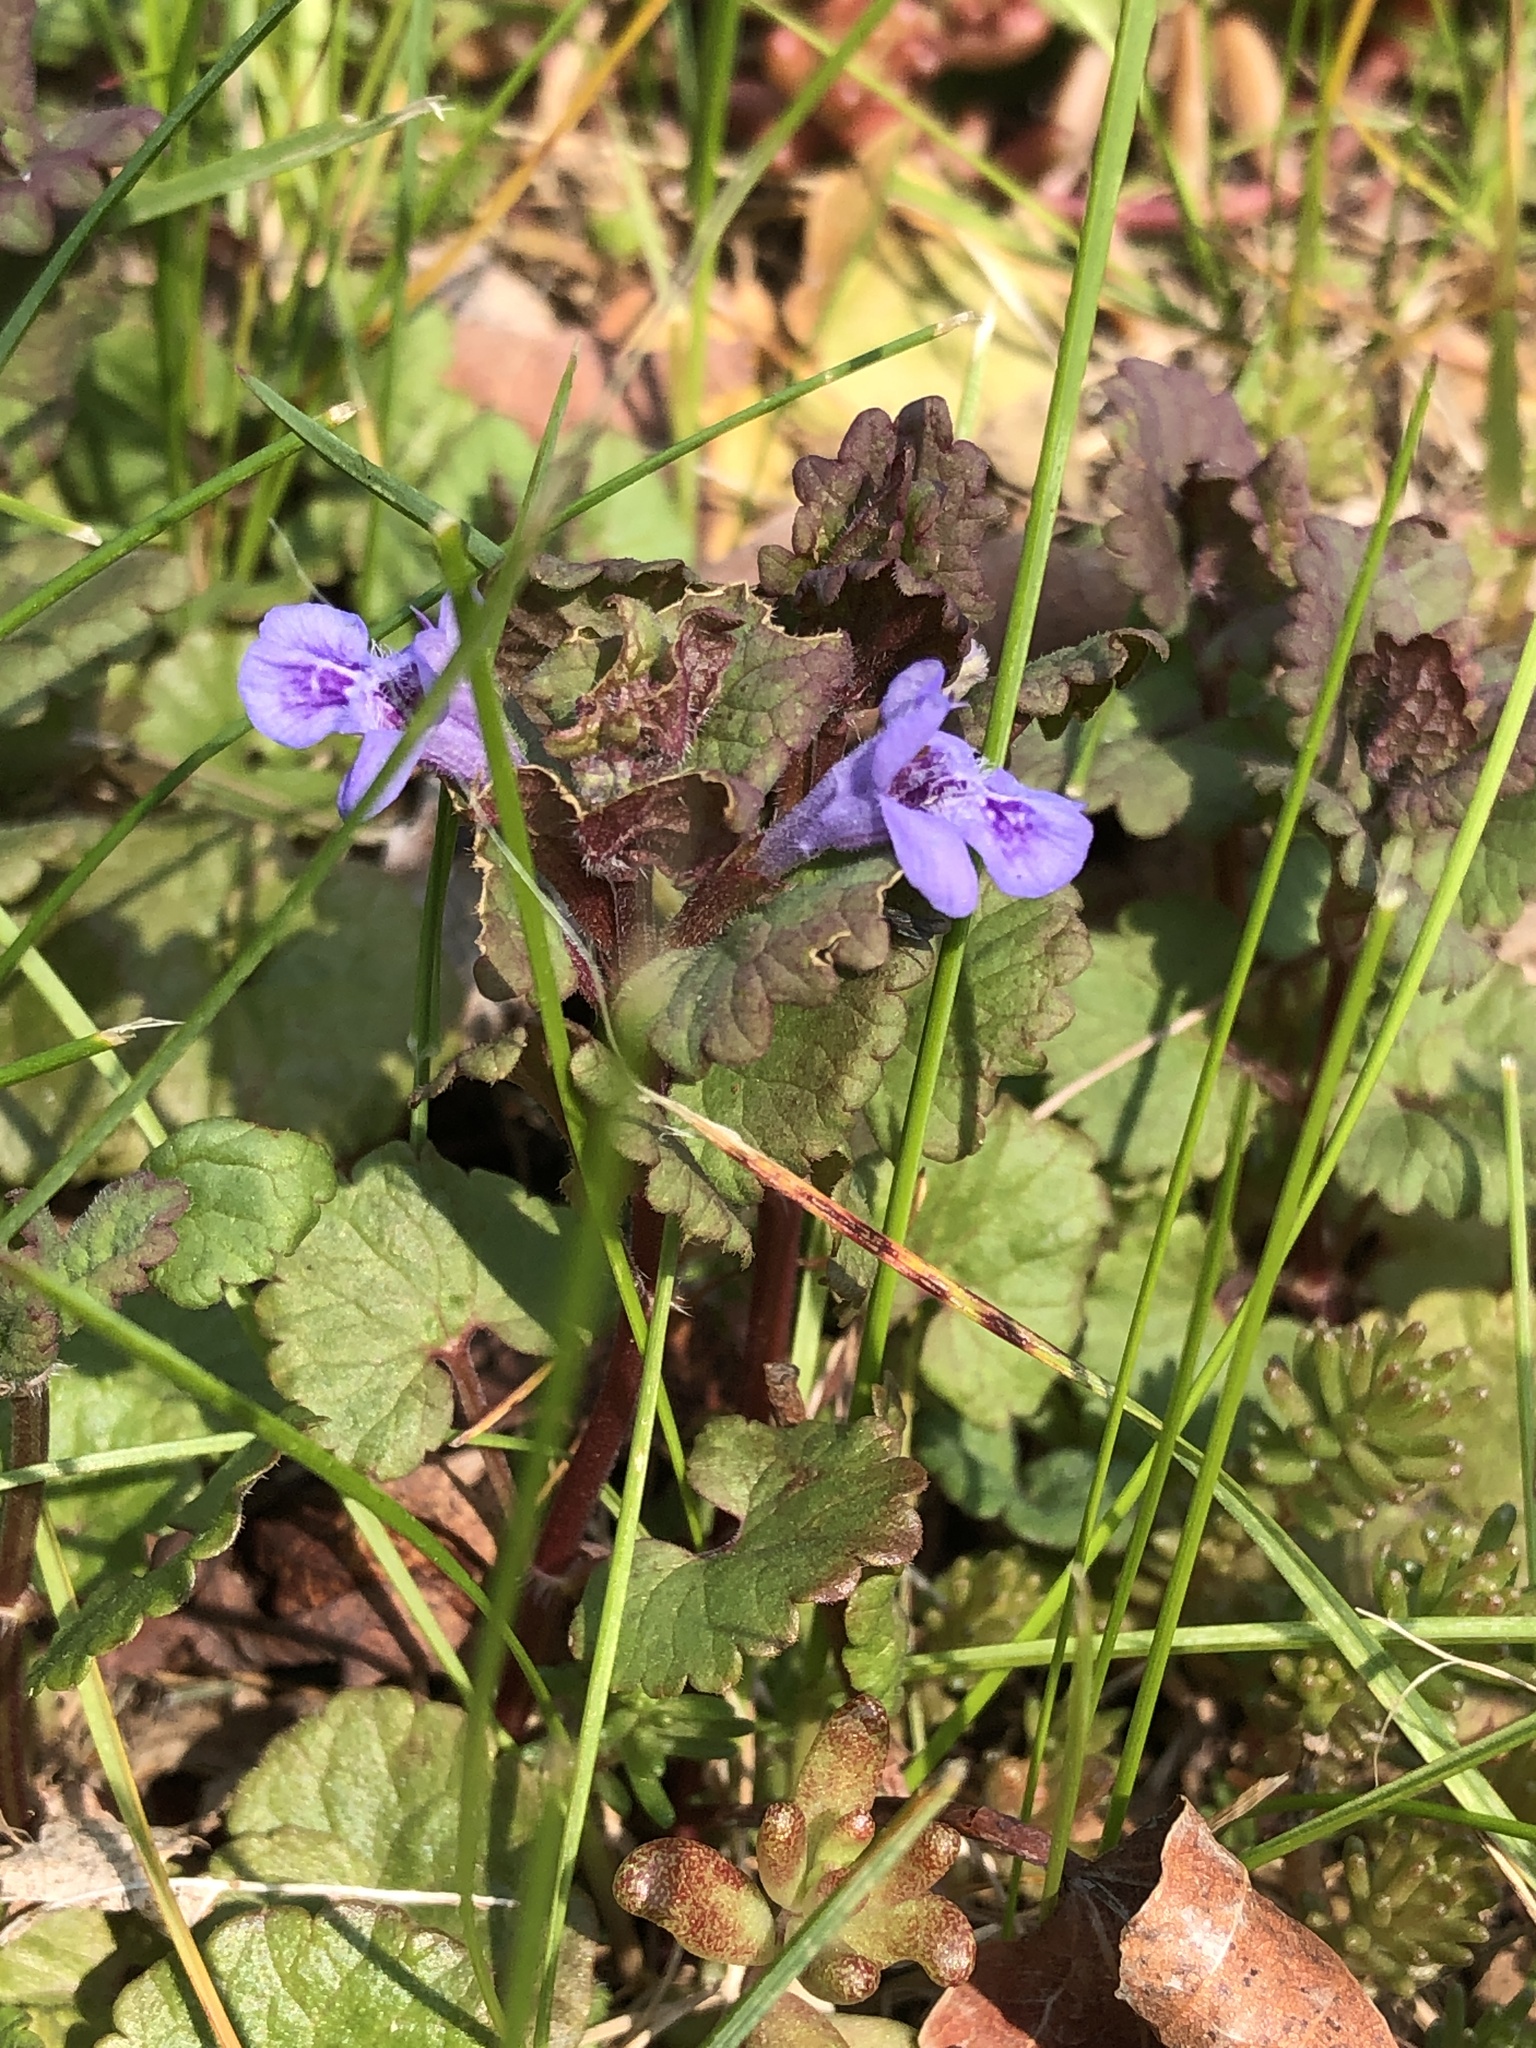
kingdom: Plantae
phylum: Tracheophyta
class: Magnoliopsida
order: Lamiales
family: Lamiaceae
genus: Glechoma
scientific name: Glechoma hederacea
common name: Ground ivy
